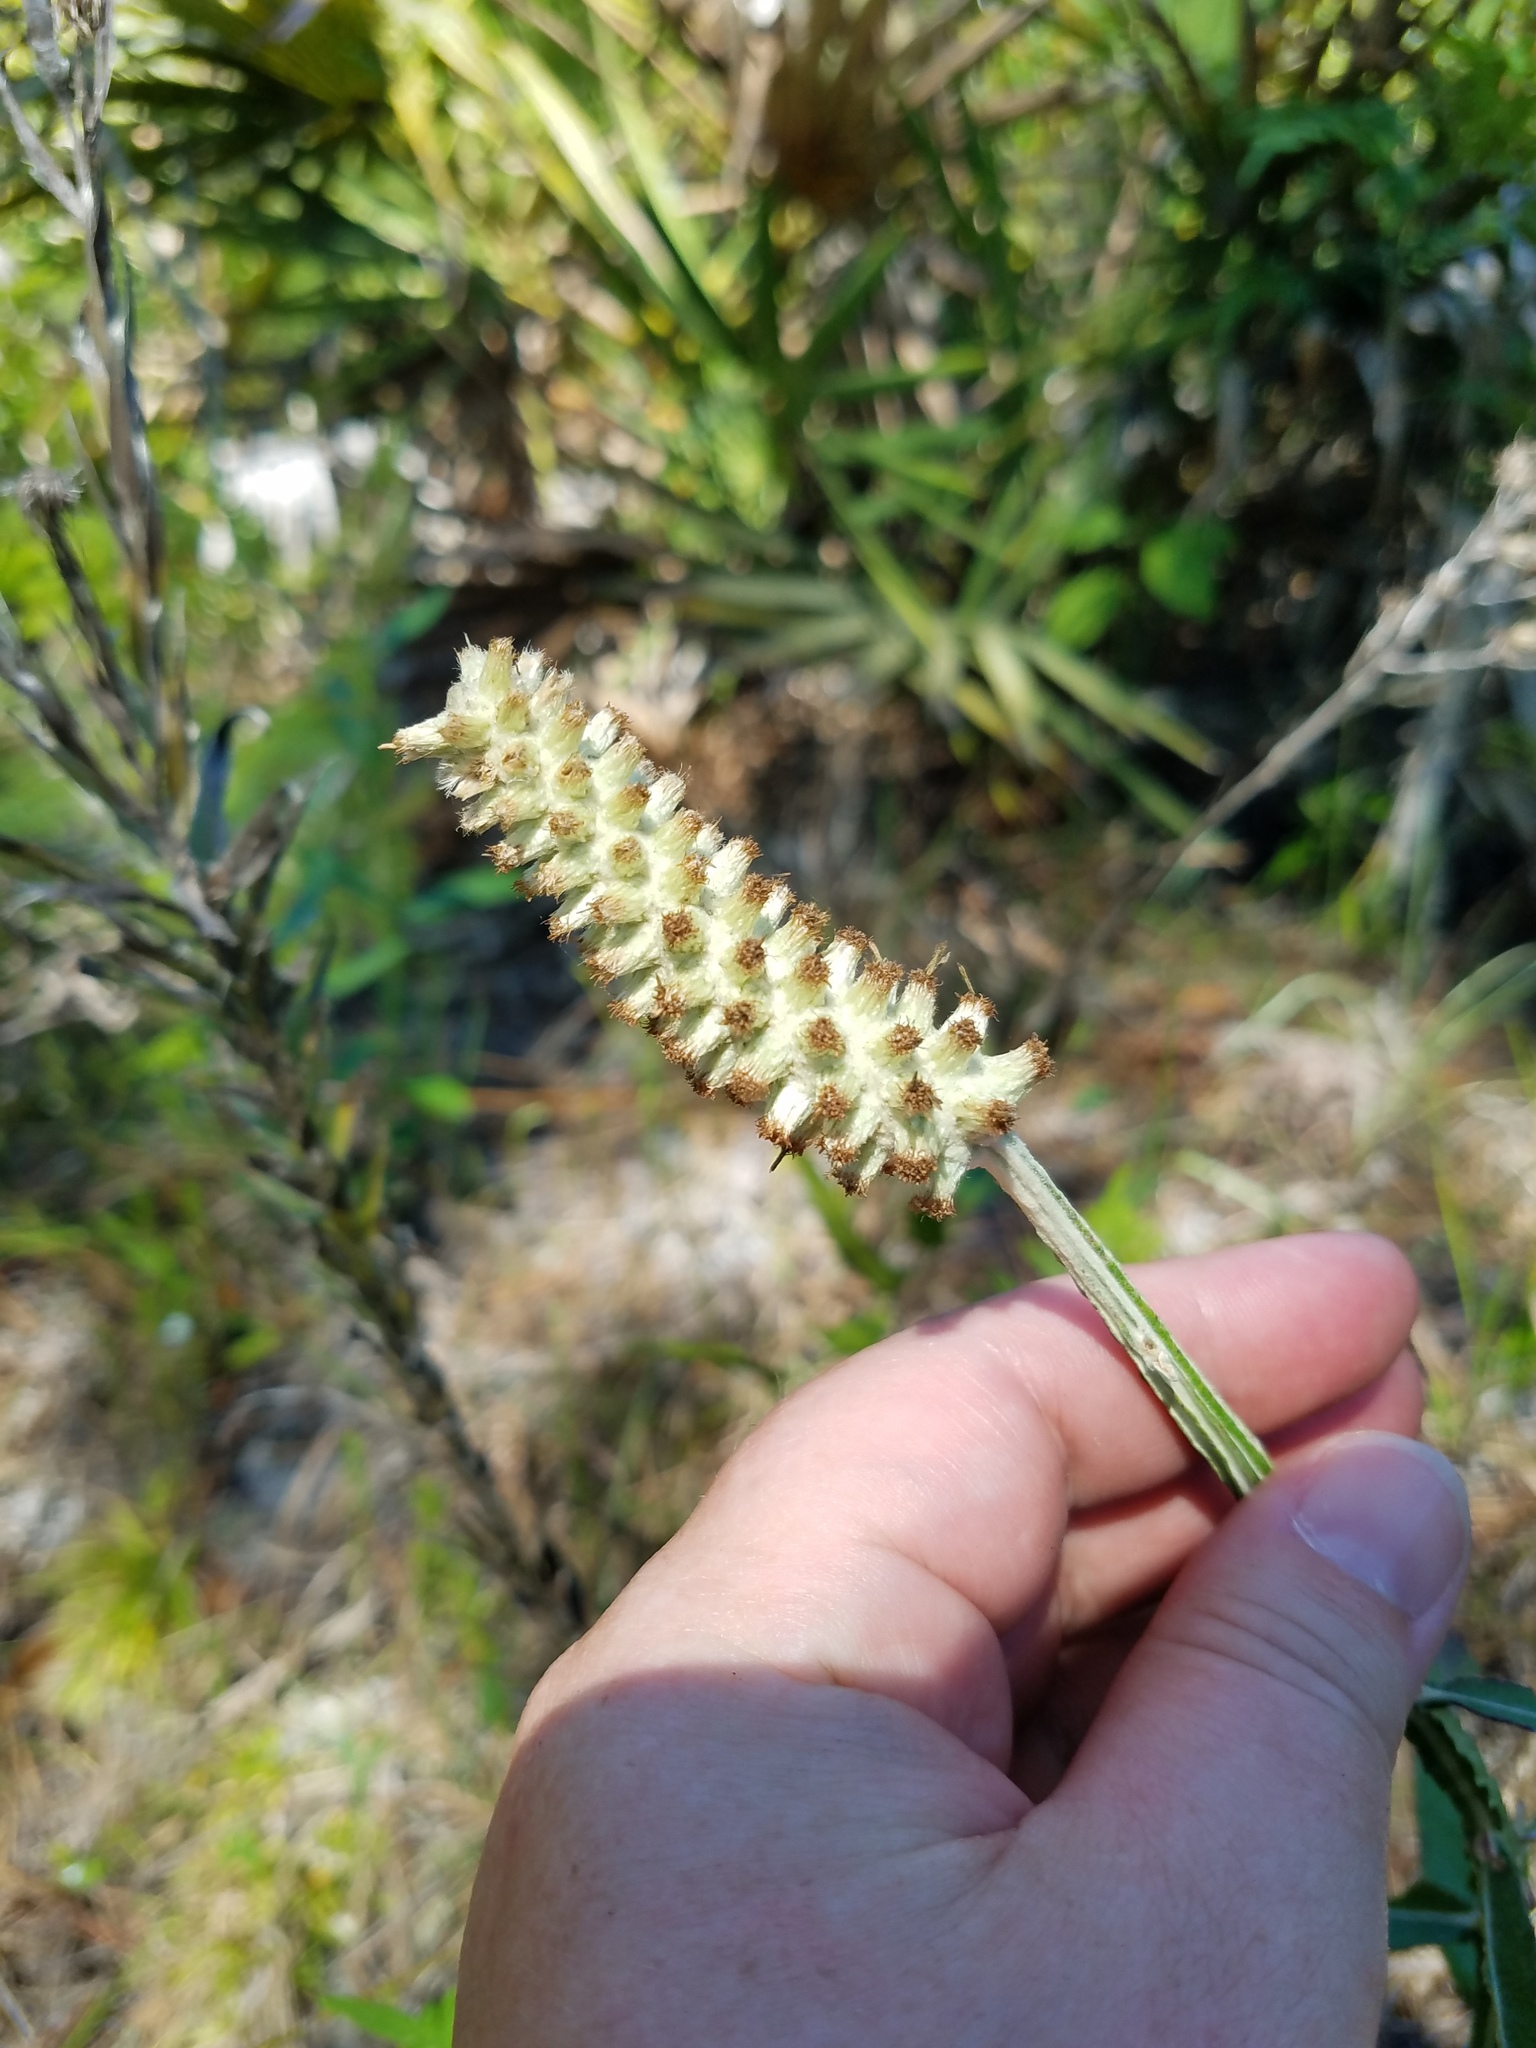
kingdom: Plantae
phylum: Tracheophyta
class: Magnoliopsida
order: Asterales
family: Asteraceae
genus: Pterocaulon
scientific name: Pterocaulon pycnostachyum
